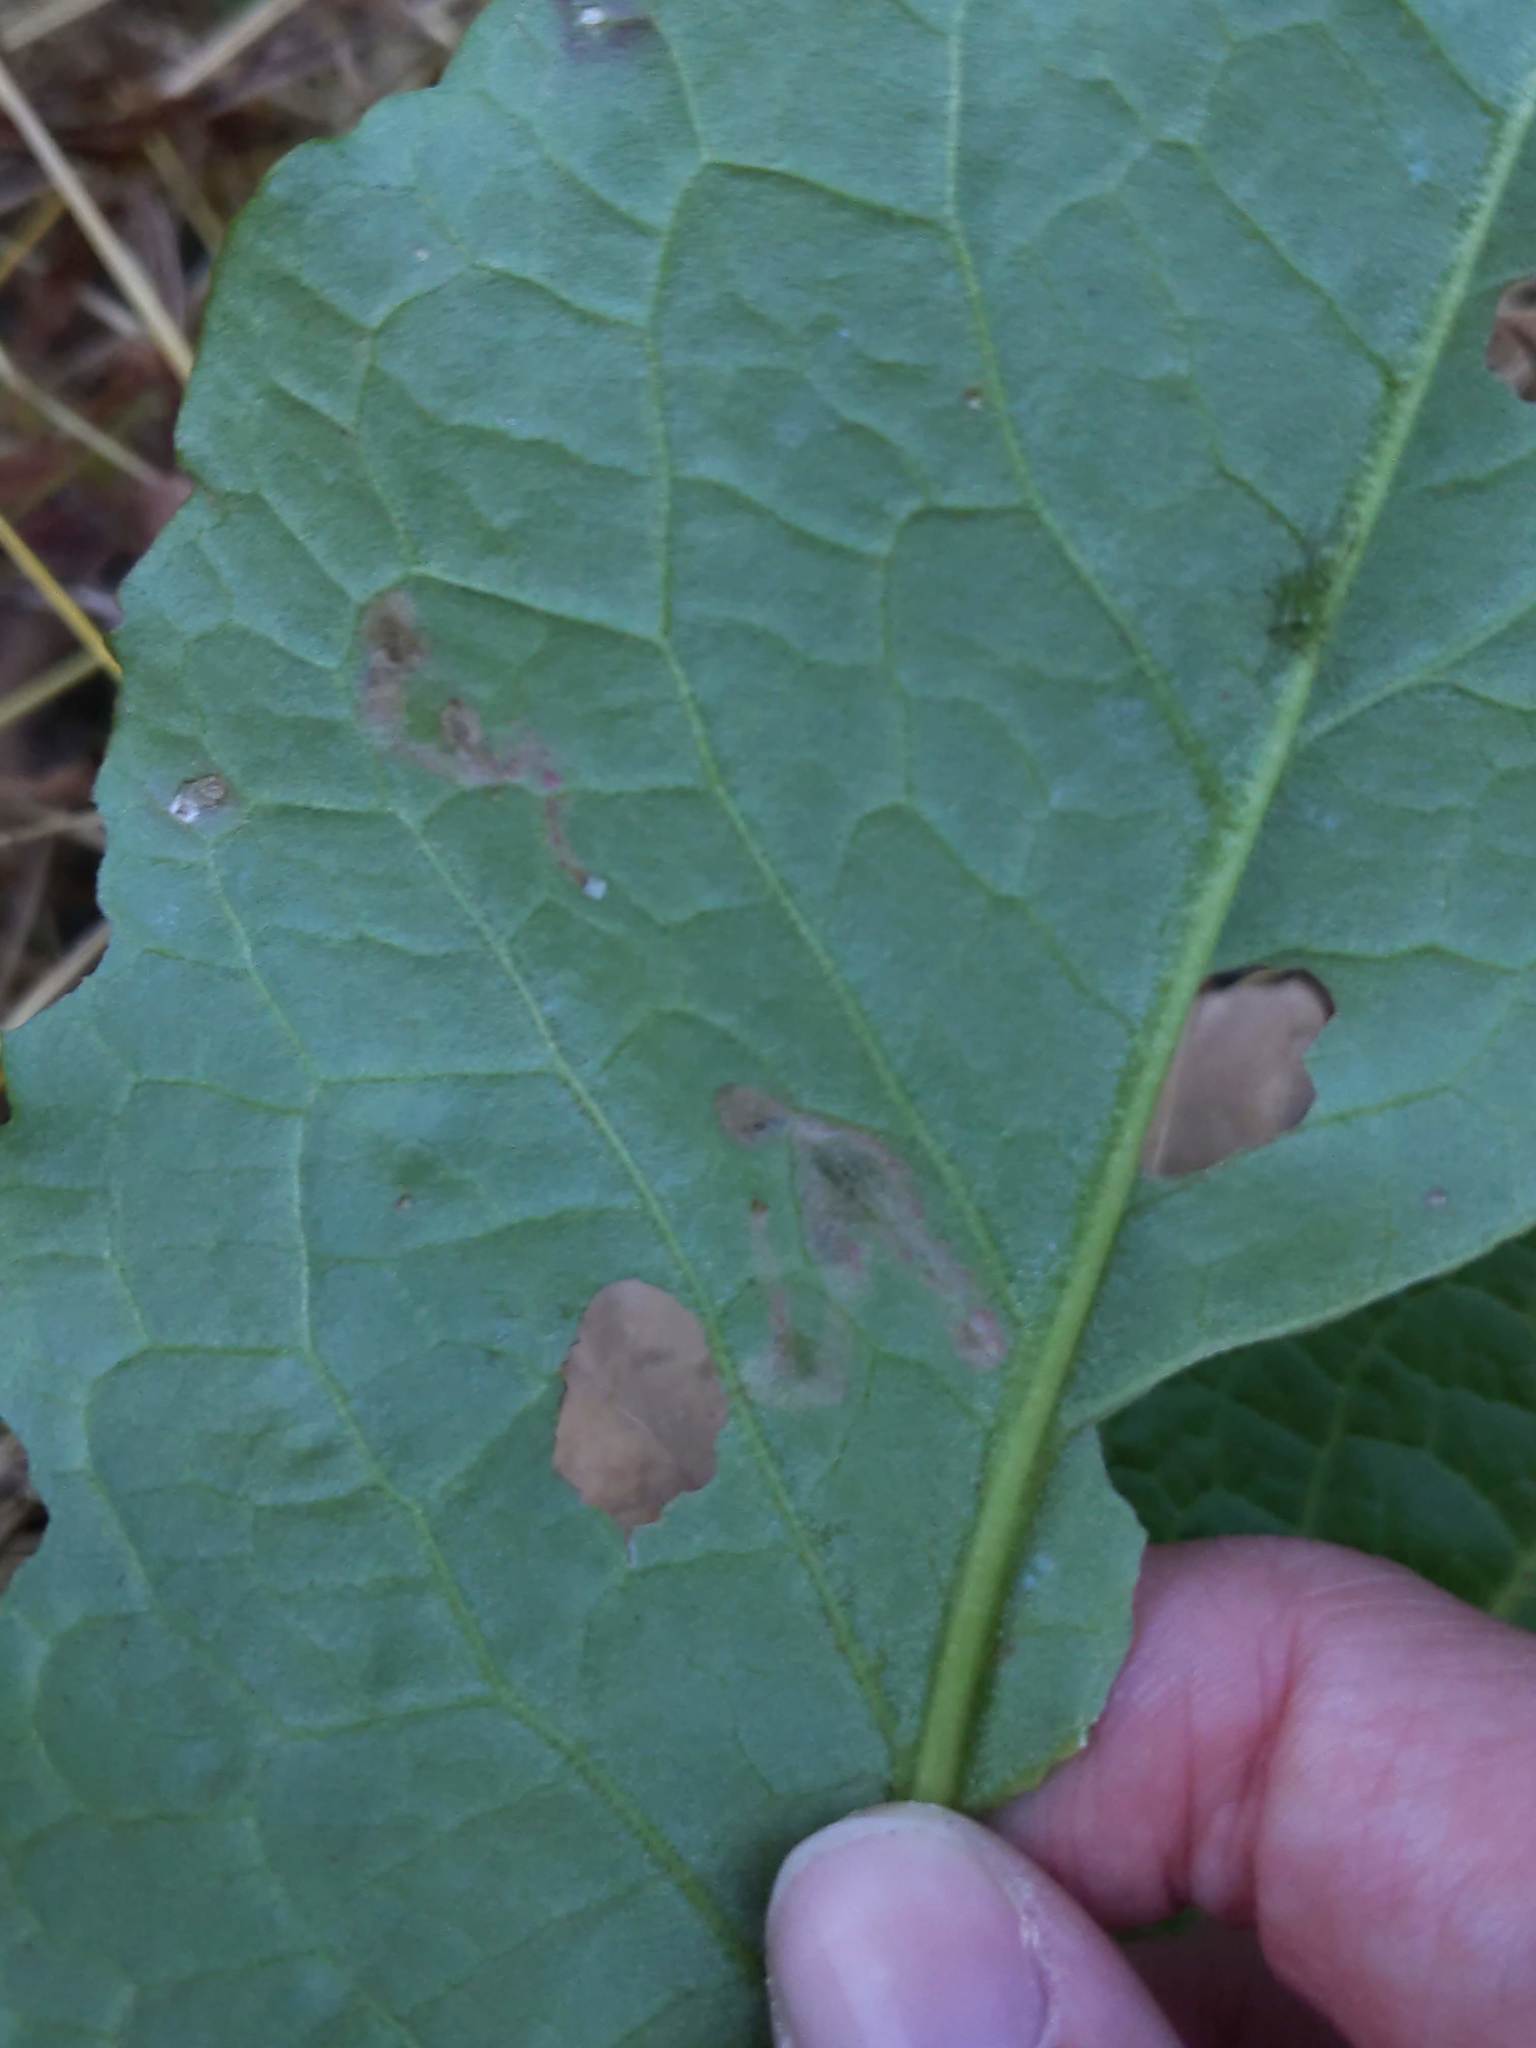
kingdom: Animalia
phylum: Arthropoda
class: Insecta
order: Diptera
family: Anthomyiidae
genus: Pegomya
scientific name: Pegomya bicolor
